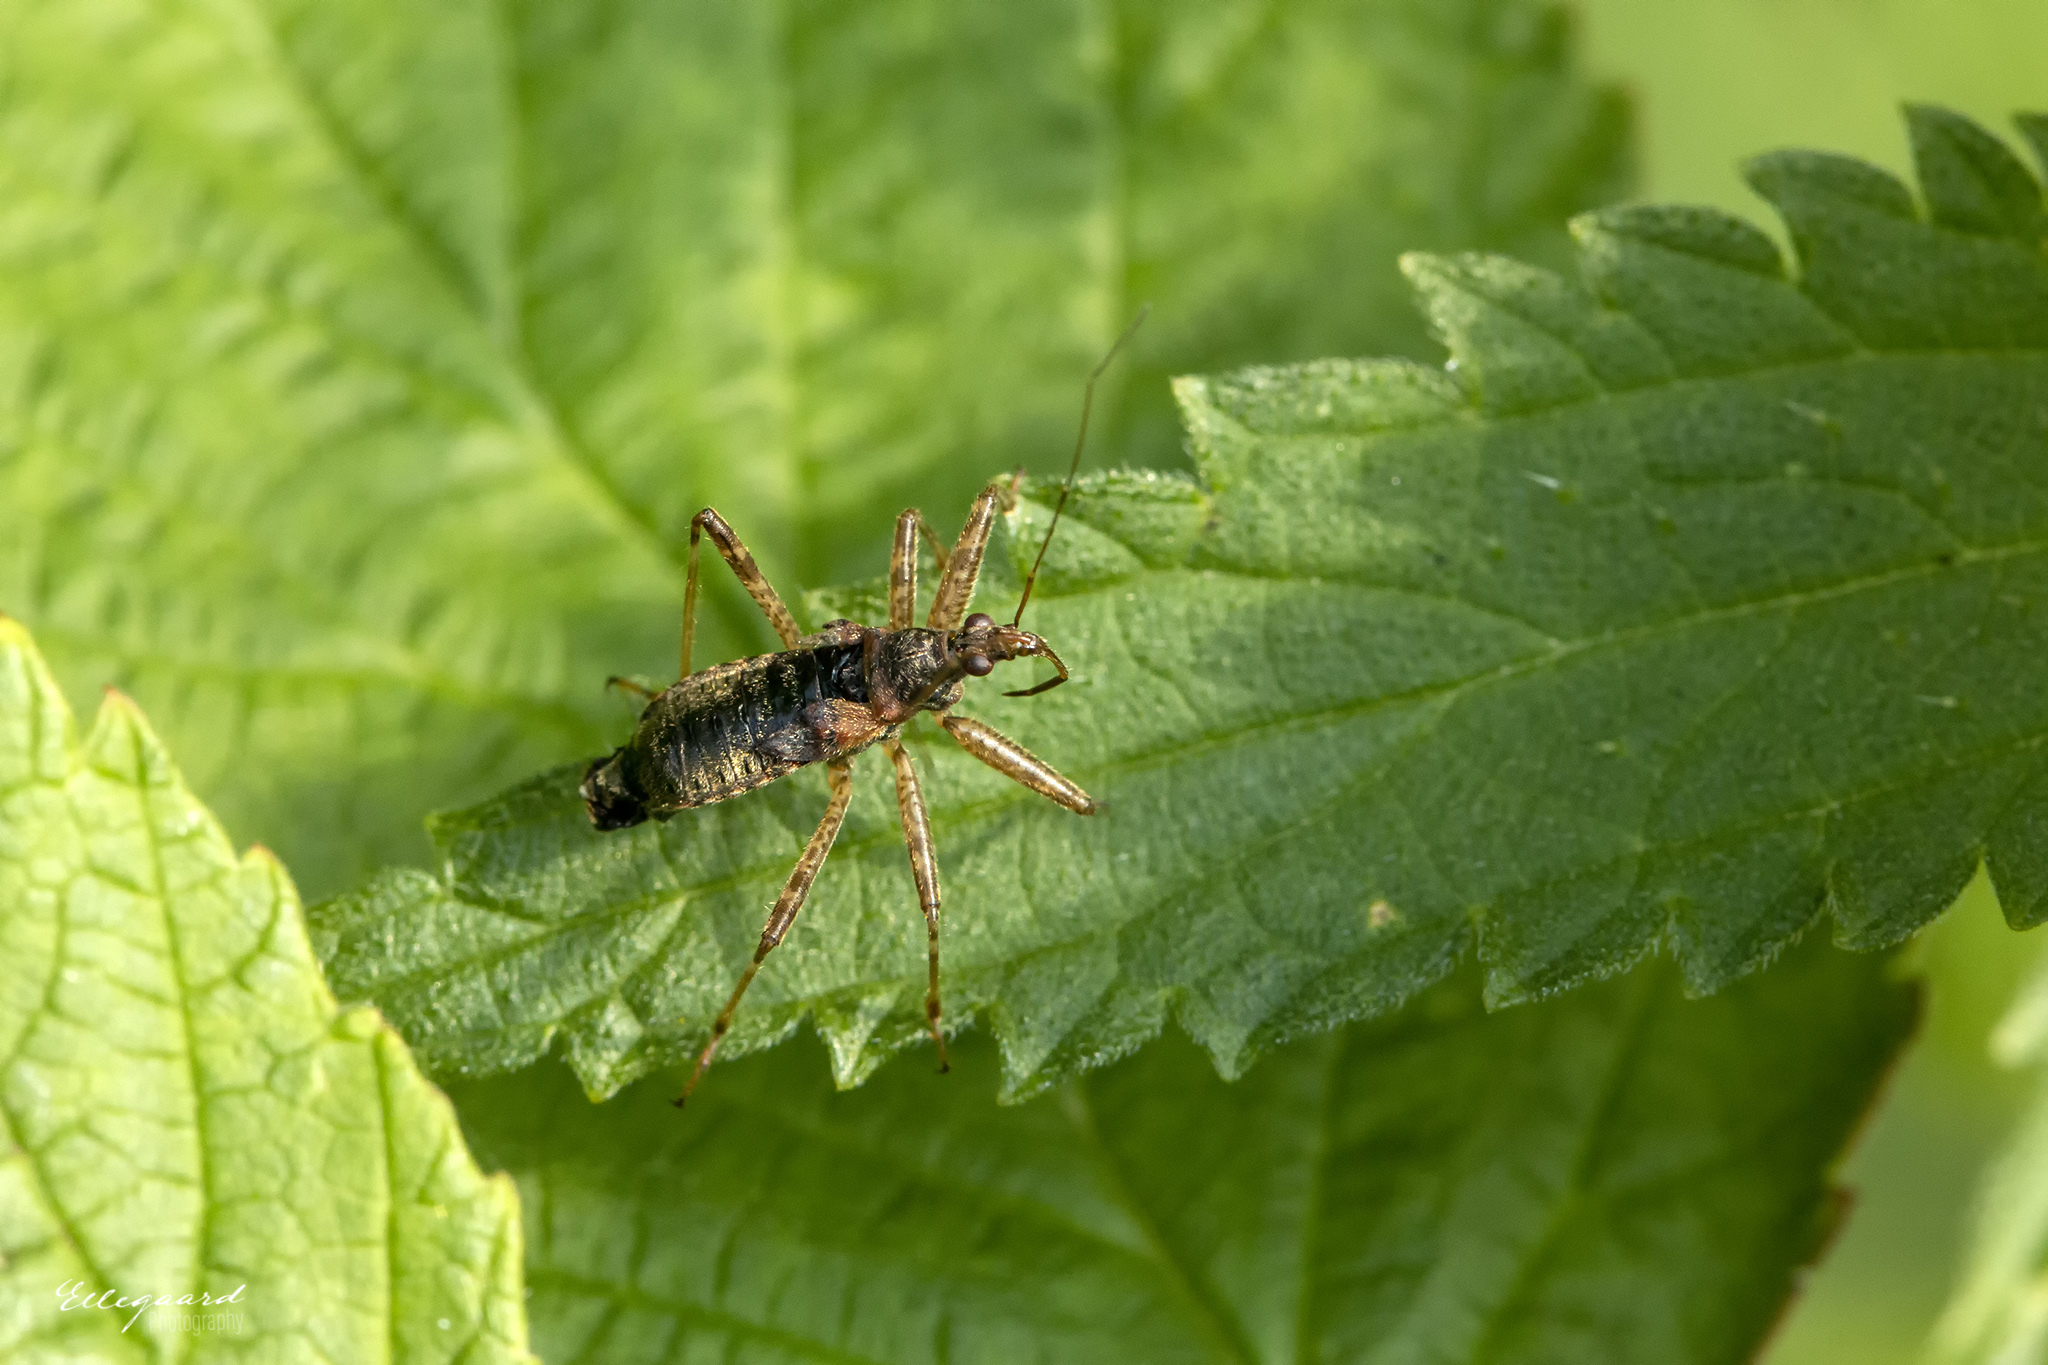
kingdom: Animalia
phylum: Arthropoda
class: Insecta
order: Hemiptera
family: Nabidae
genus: Himacerus
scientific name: Himacerus apterus
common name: Tree damsel bug
